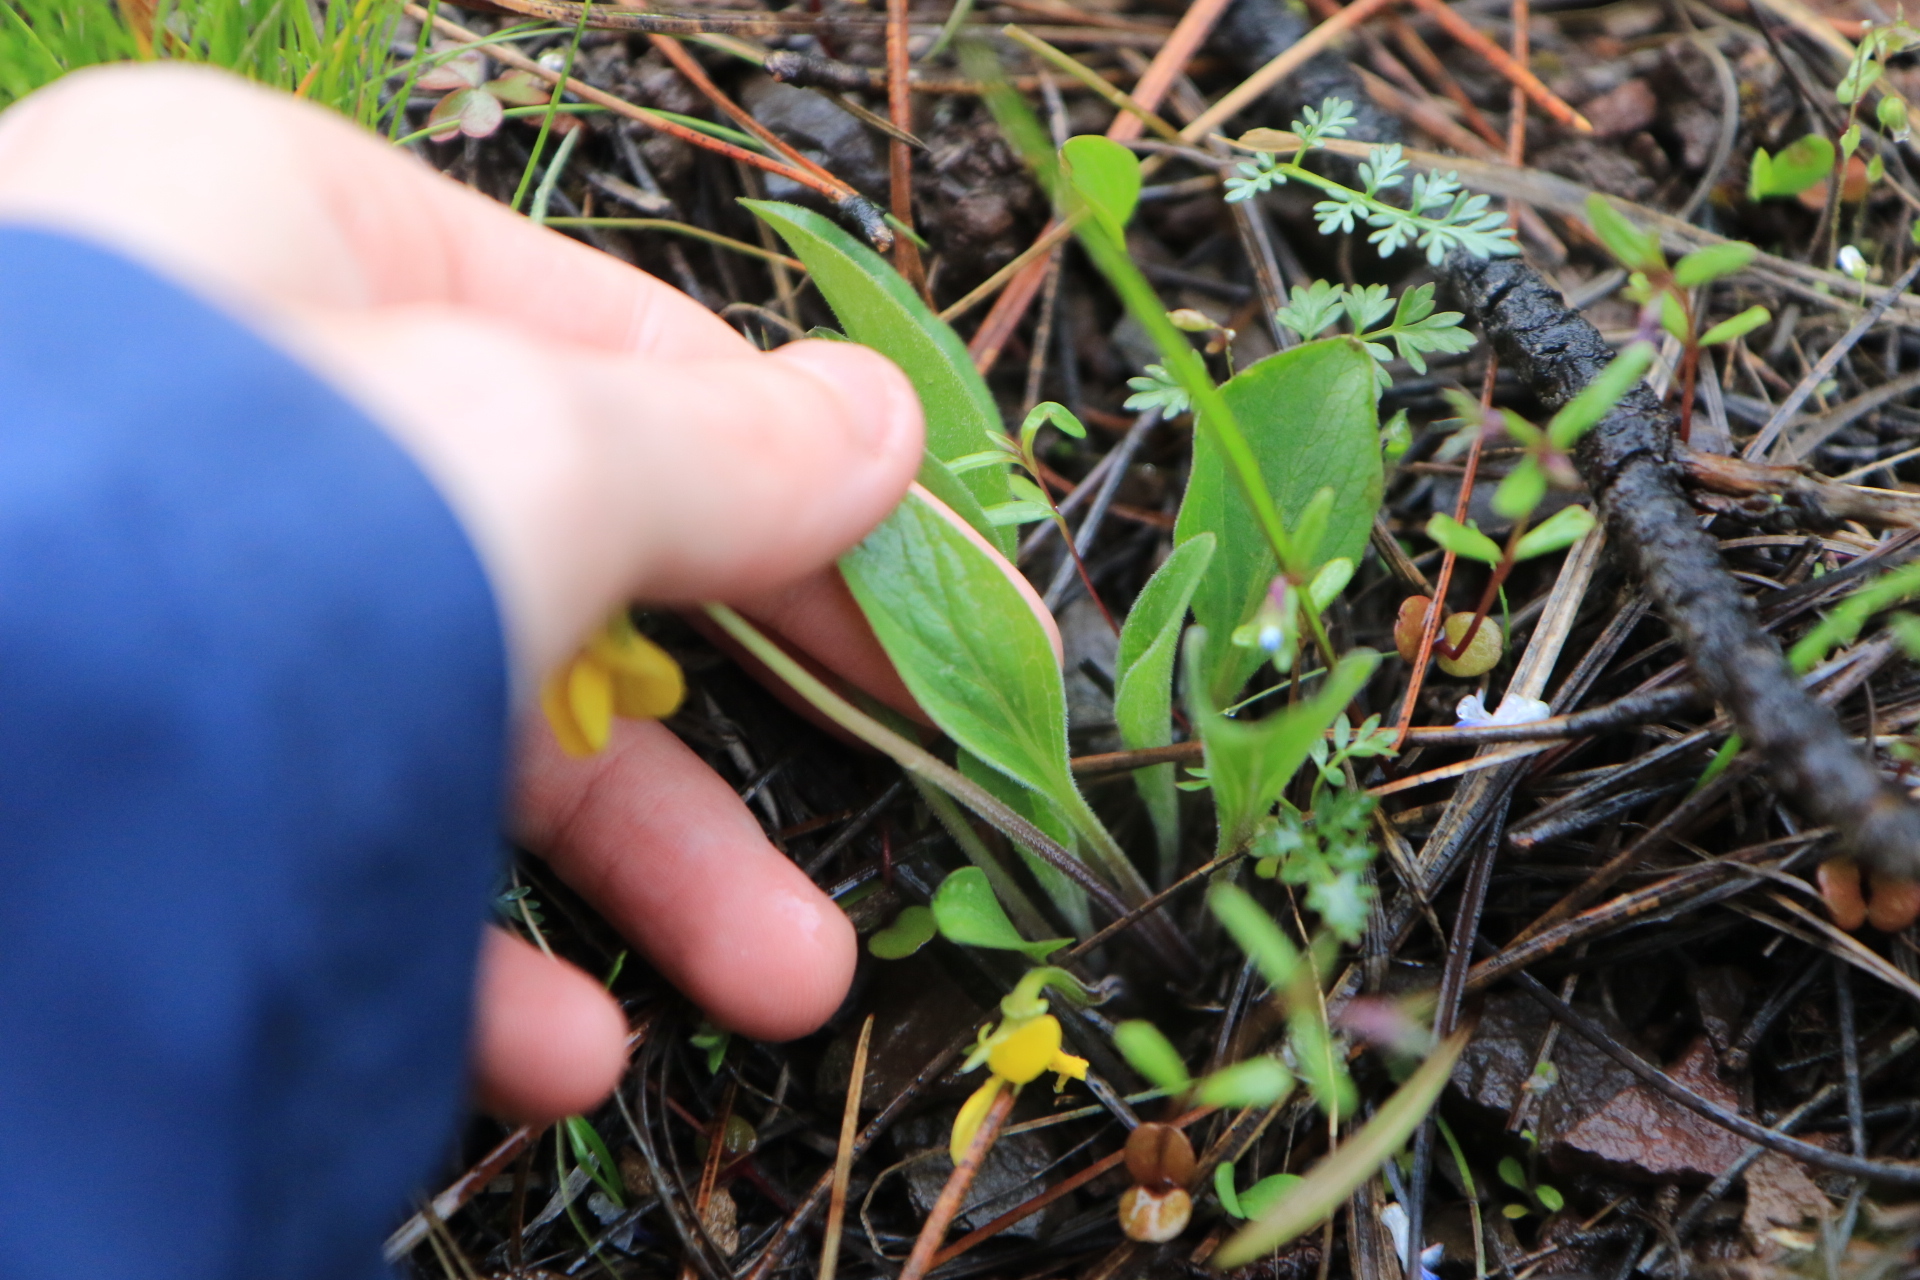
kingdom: Plantae
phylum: Tracheophyta
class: Magnoliopsida
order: Malpighiales
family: Violaceae
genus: Viola
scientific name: Viola bakeri
